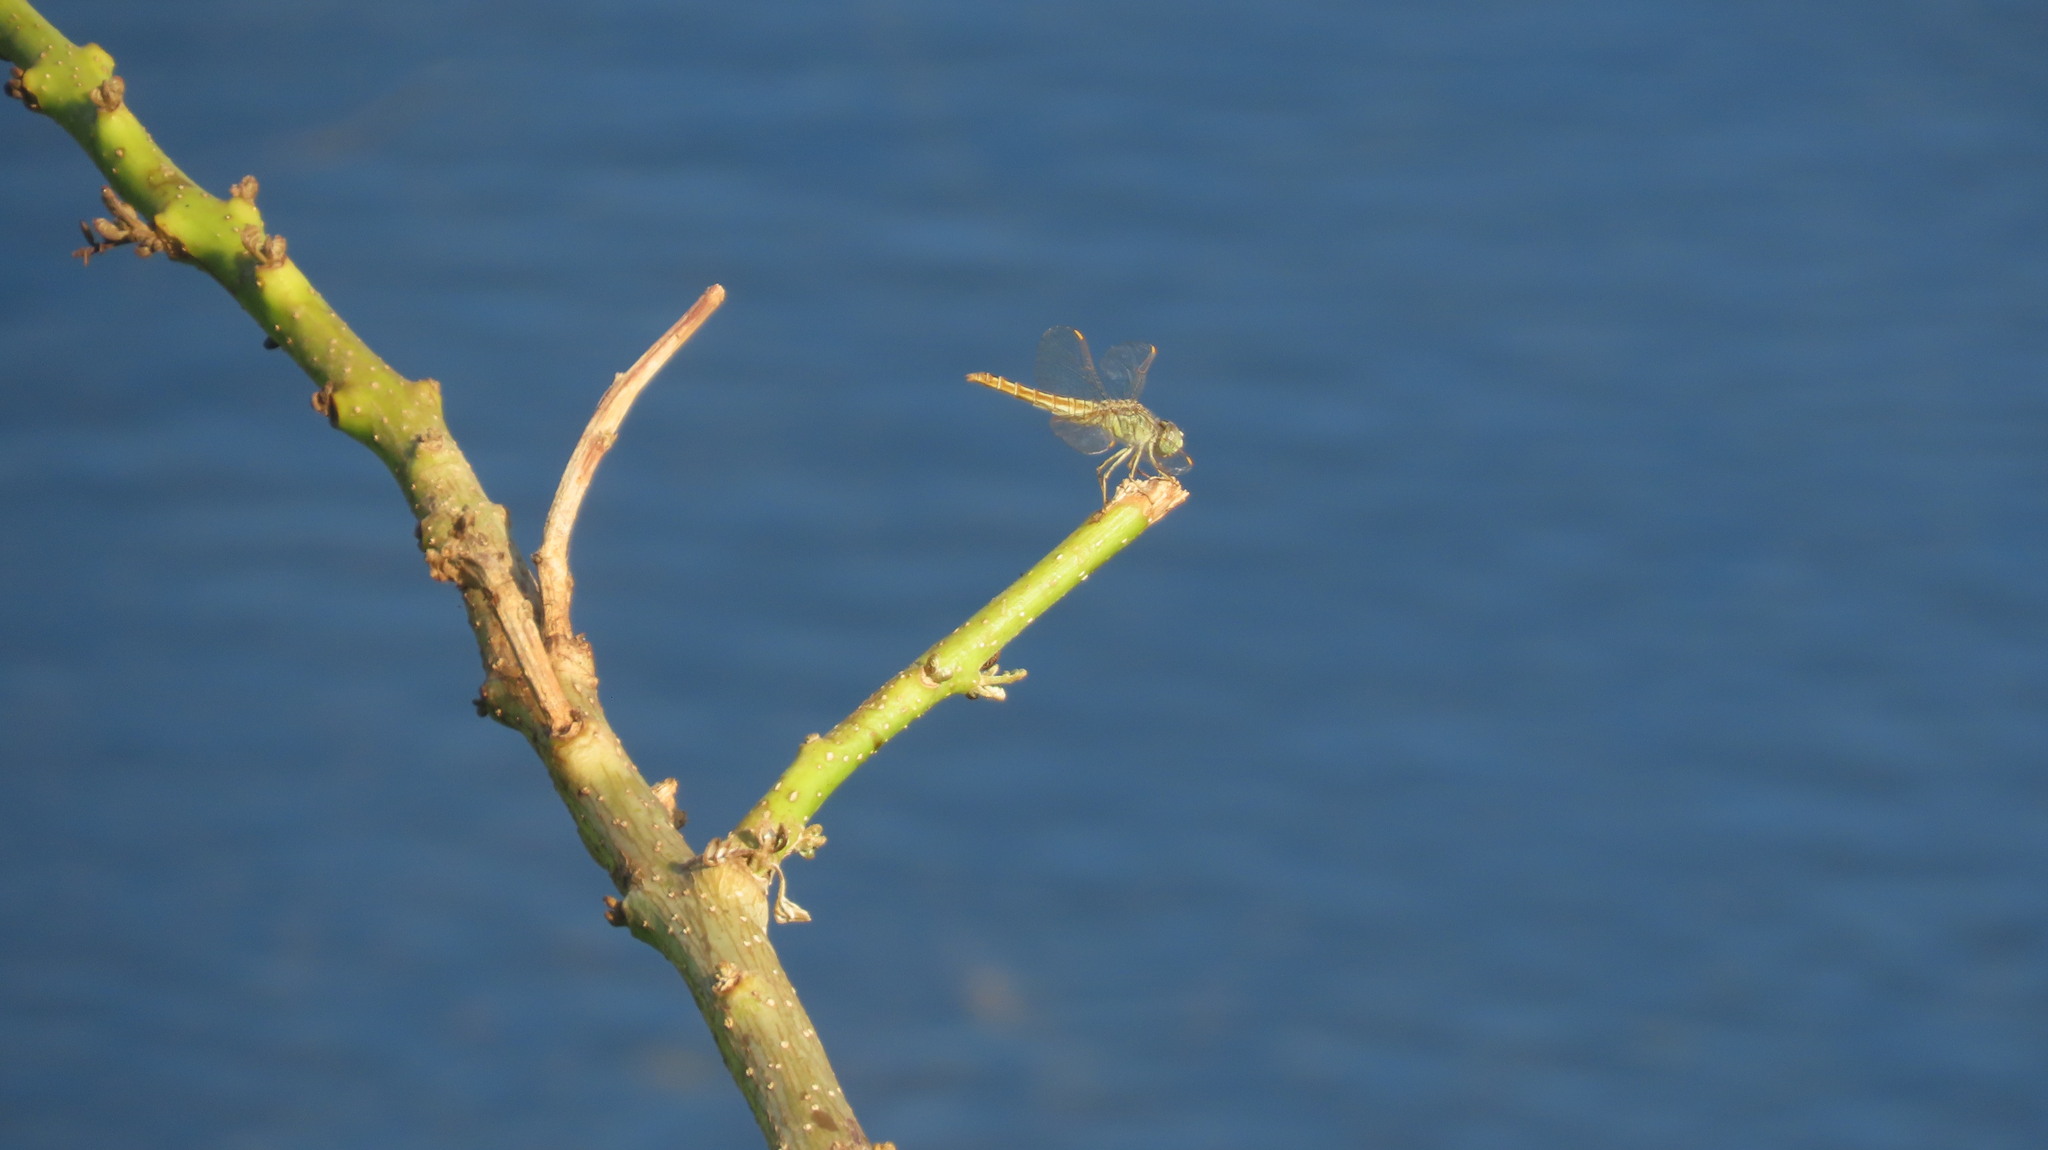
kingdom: Animalia
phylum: Arthropoda
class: Insecta
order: Odonata
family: Libellulidae
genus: Brachythemis
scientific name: Brachythemis contaminata
